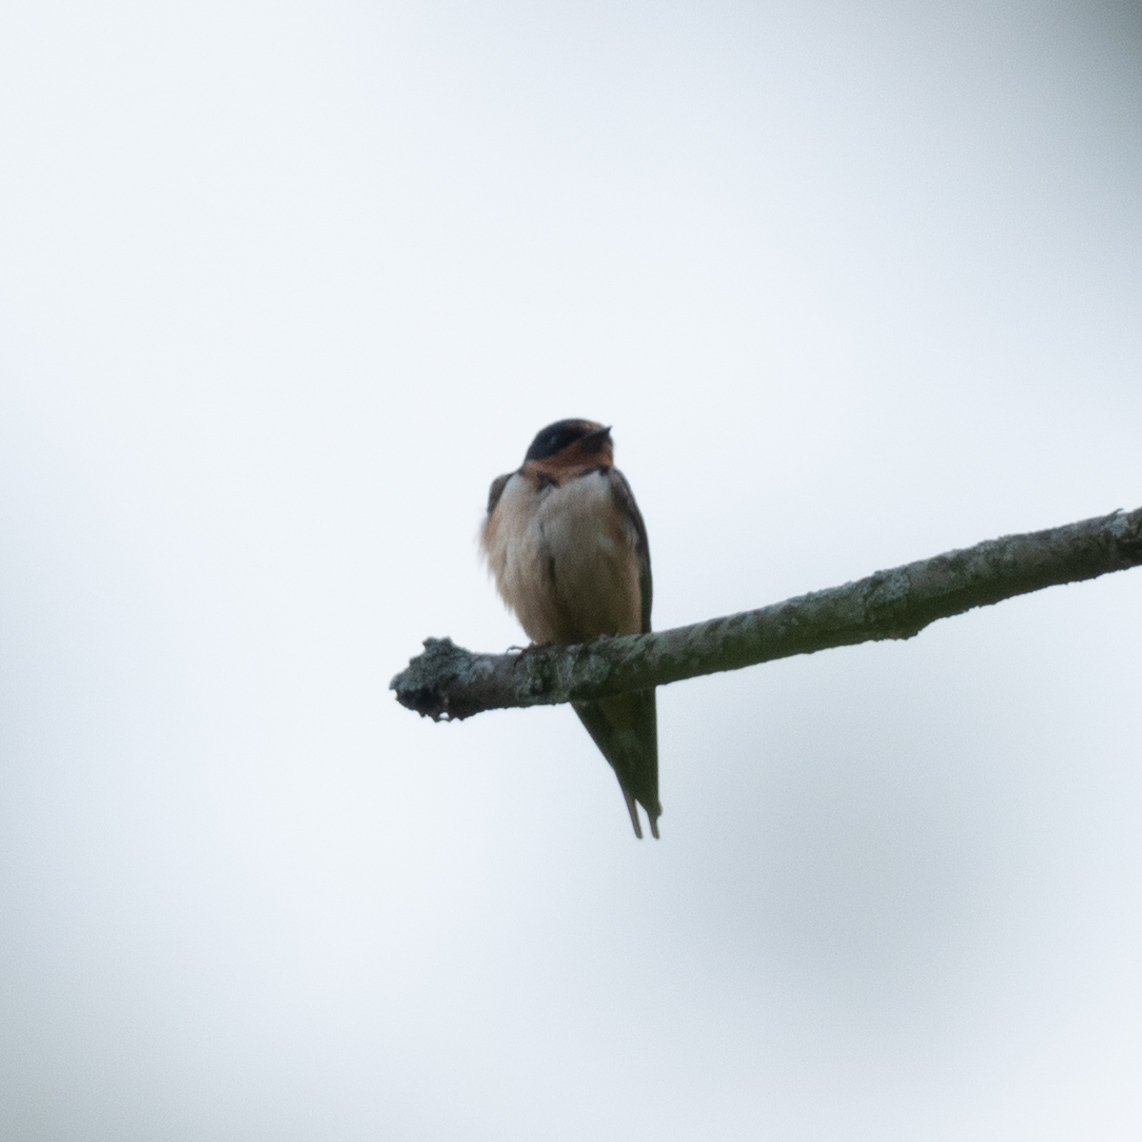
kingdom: Animalia
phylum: Chordata
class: Aves
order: Passeriformes
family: Hirundinidae
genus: Hirundo
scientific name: Hirundo rustica
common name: Barn swallow
